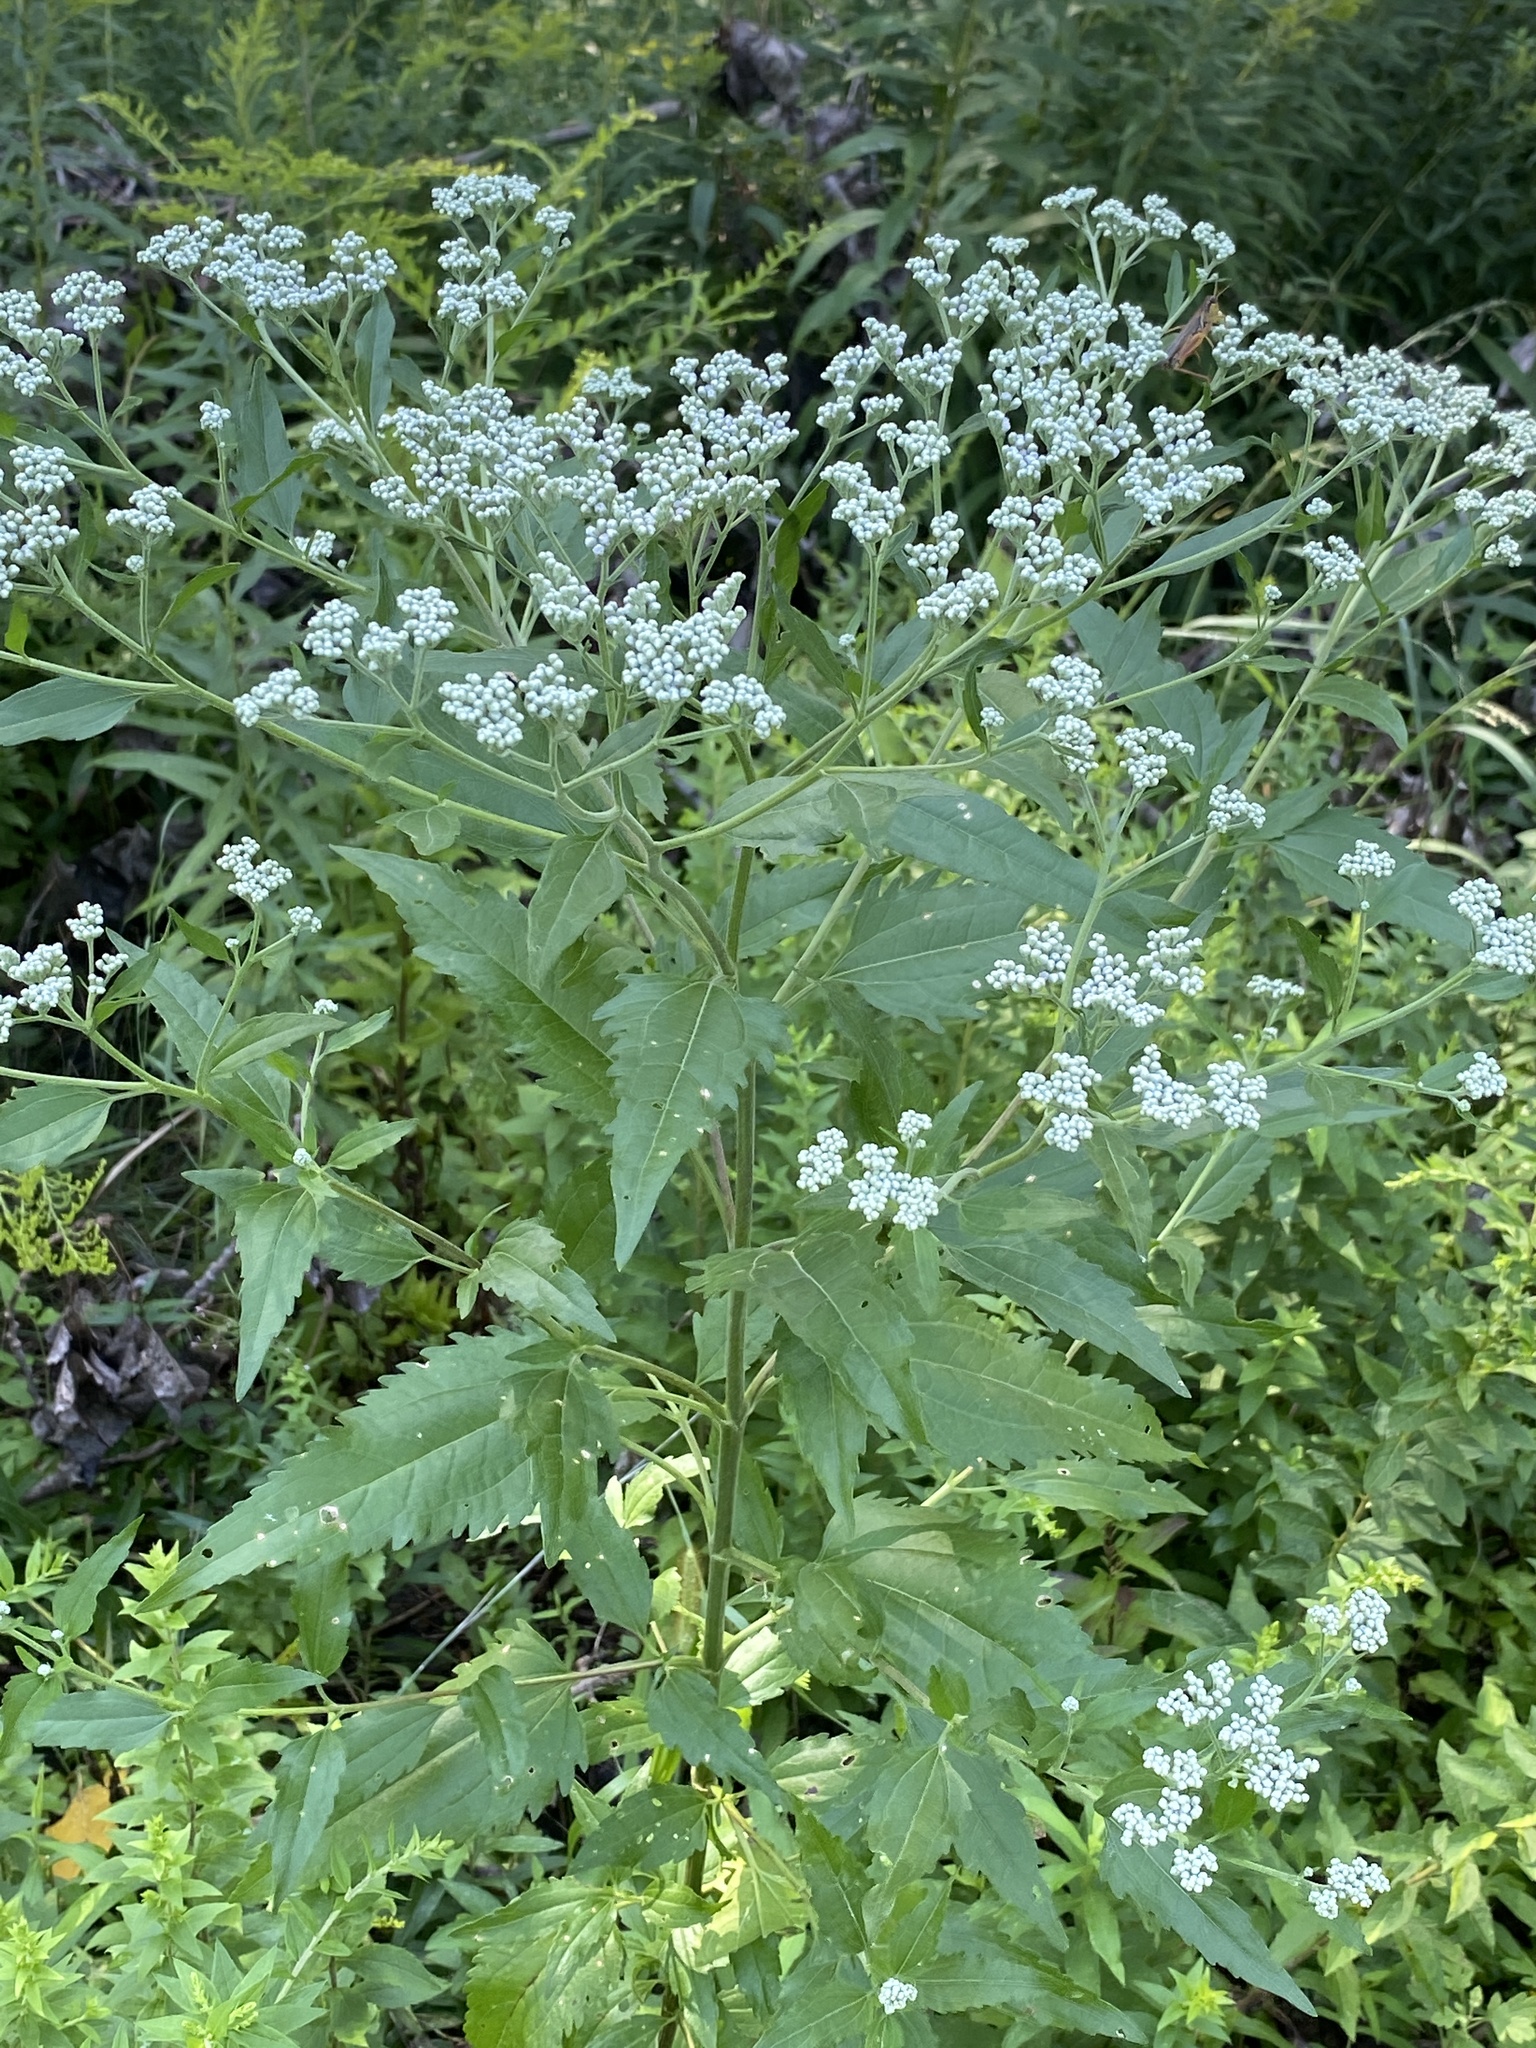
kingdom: Plantae
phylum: Tracheophyta
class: Magnoliopsida
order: Asterales
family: Asteraceae
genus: Eupatorium
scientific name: Eupatorium serotinum
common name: Late boneset
